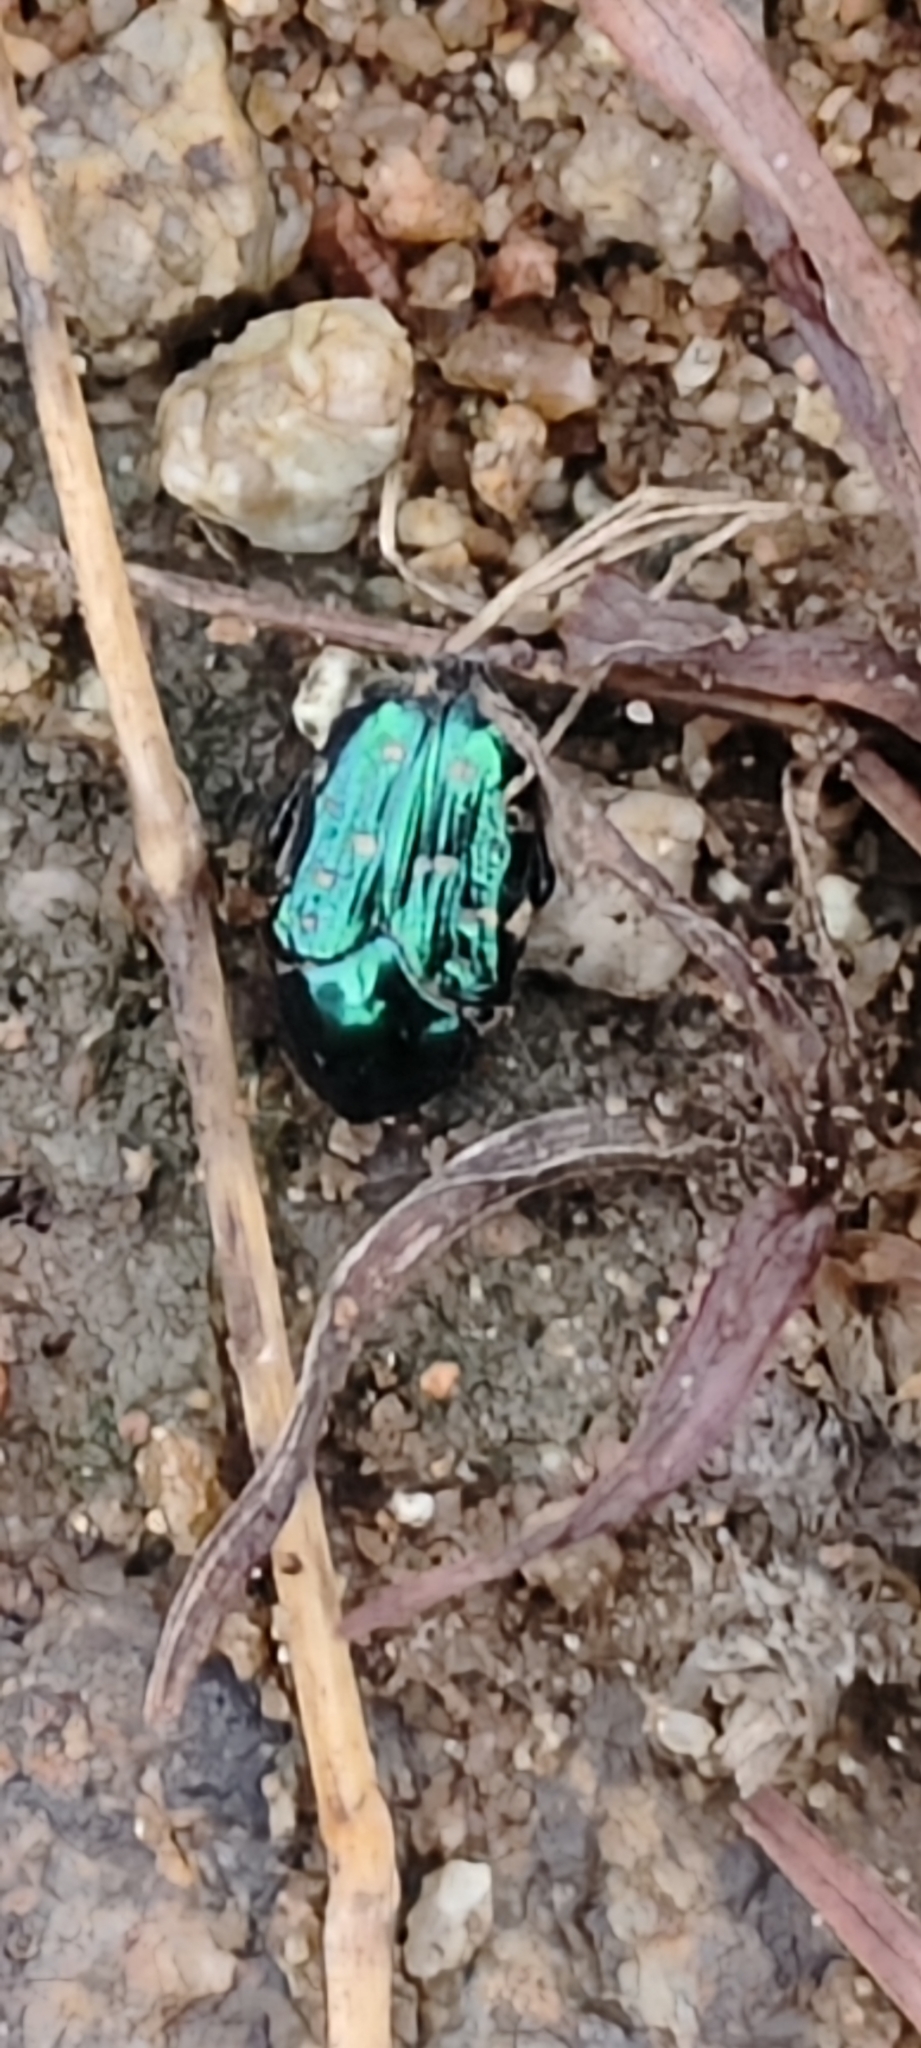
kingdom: Animalia
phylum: Arthropoda
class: Insecta
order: Coleoptera
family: Scarabaeidae
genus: Clinteria
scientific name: Clinteria coerulea
